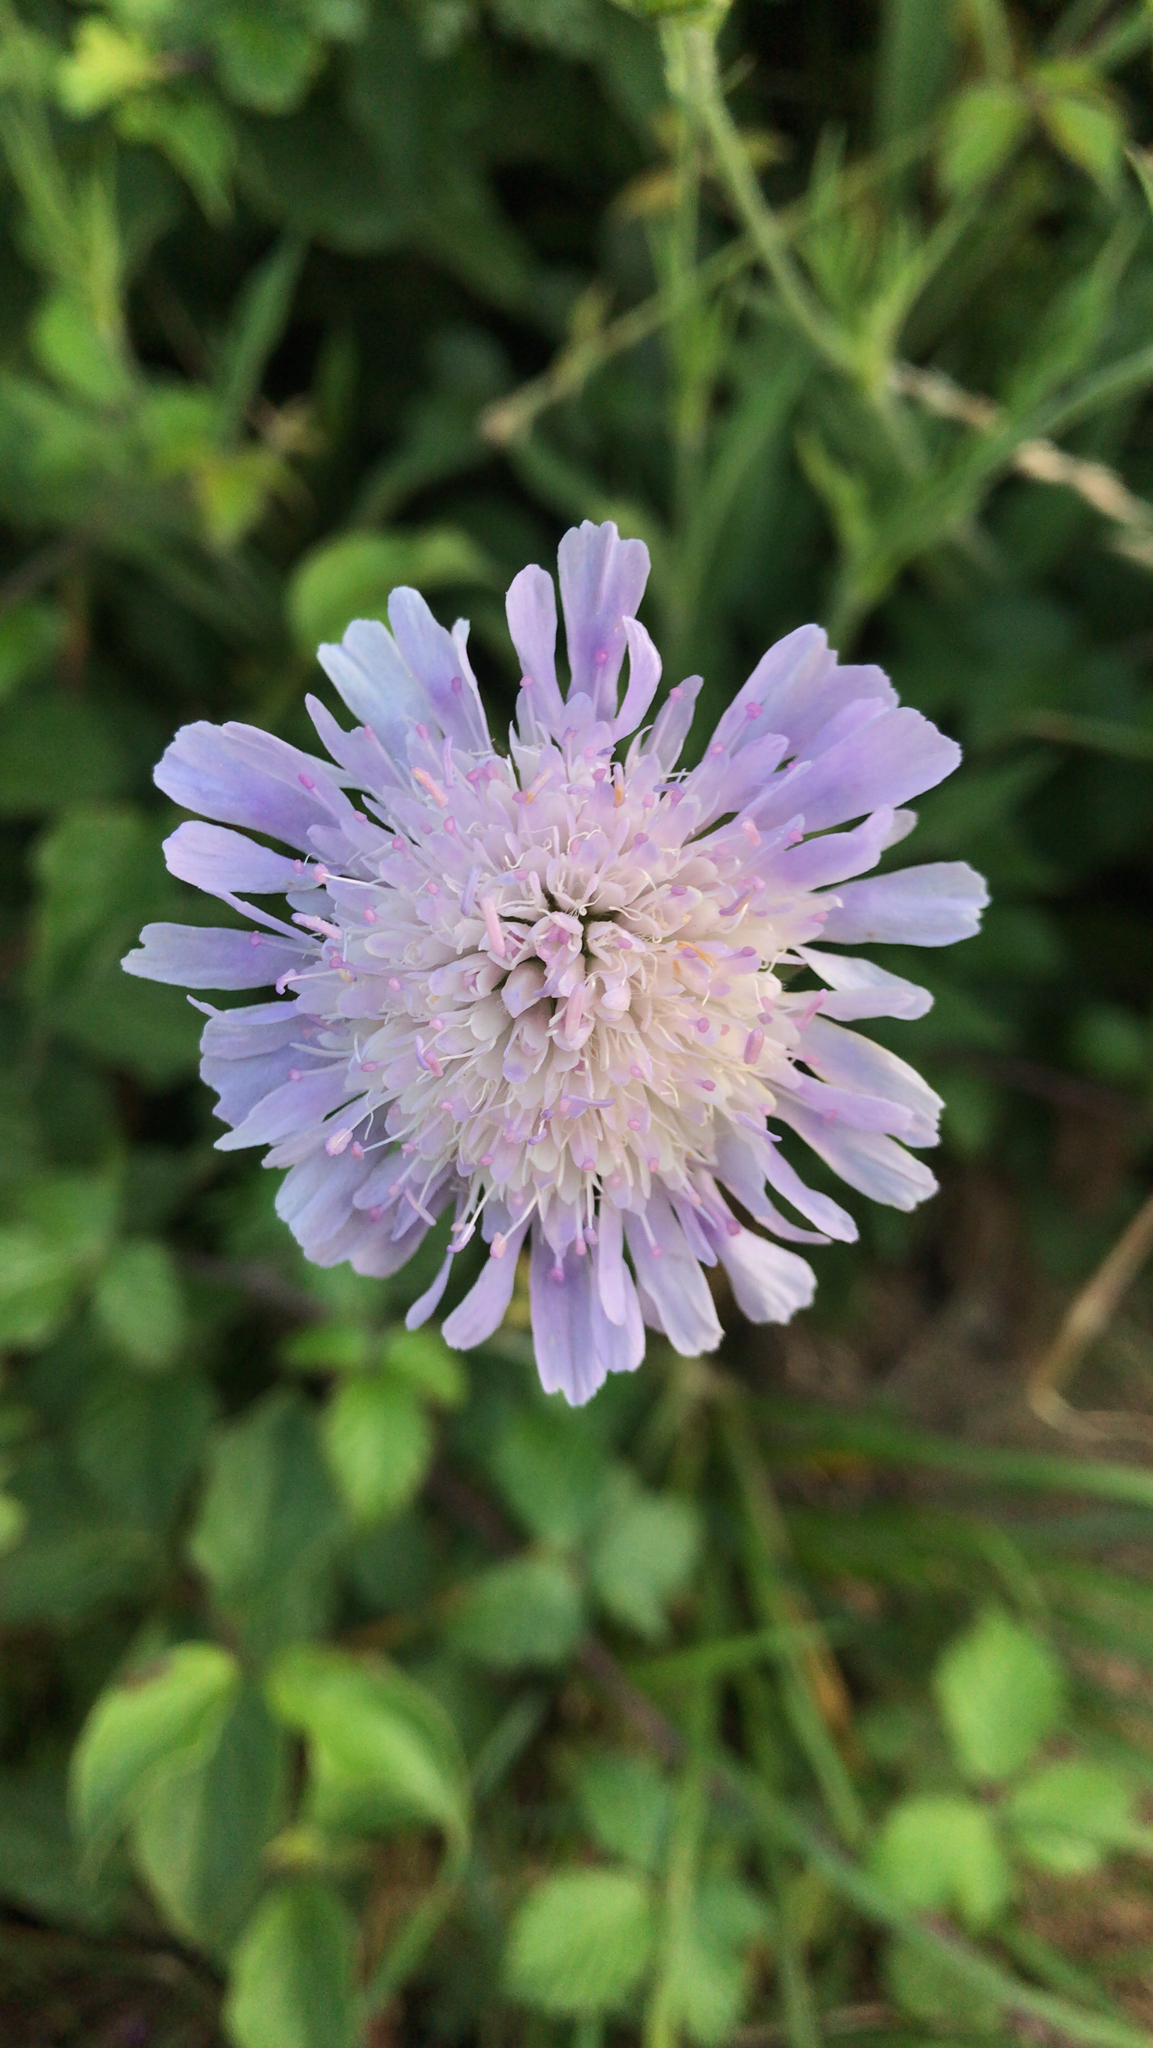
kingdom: Plantae
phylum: Tracheophyta
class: Magnoliopsida
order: Dipsacales
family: Caprifoliaceae
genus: Knautia
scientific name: Knautia arvensis
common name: Field scabiosa
